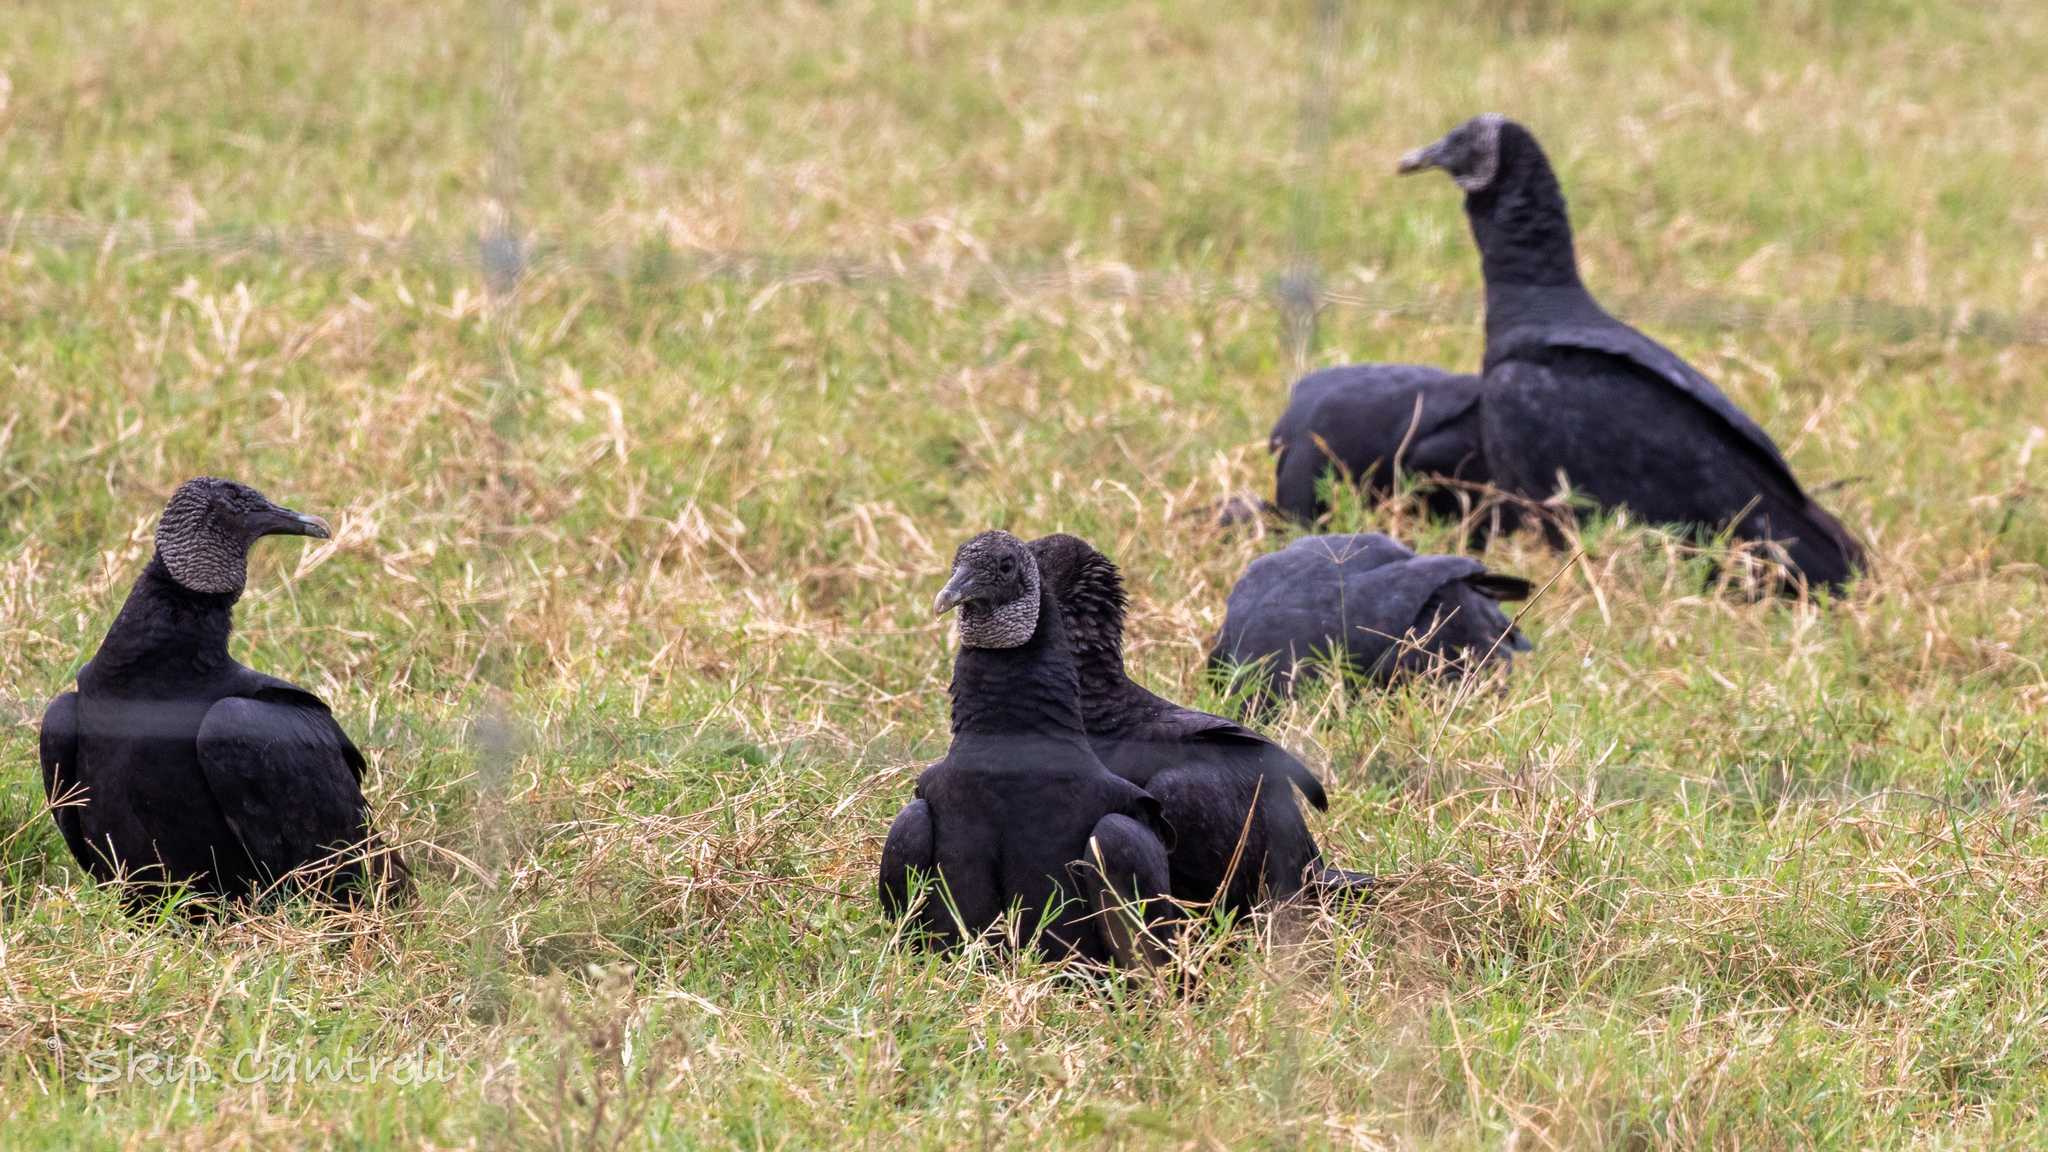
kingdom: Animalia
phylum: Chordata
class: Aves
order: Accipitriformes
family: Cathartidae
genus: Coragyps
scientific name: Coragyps atratus
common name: Black vulture
